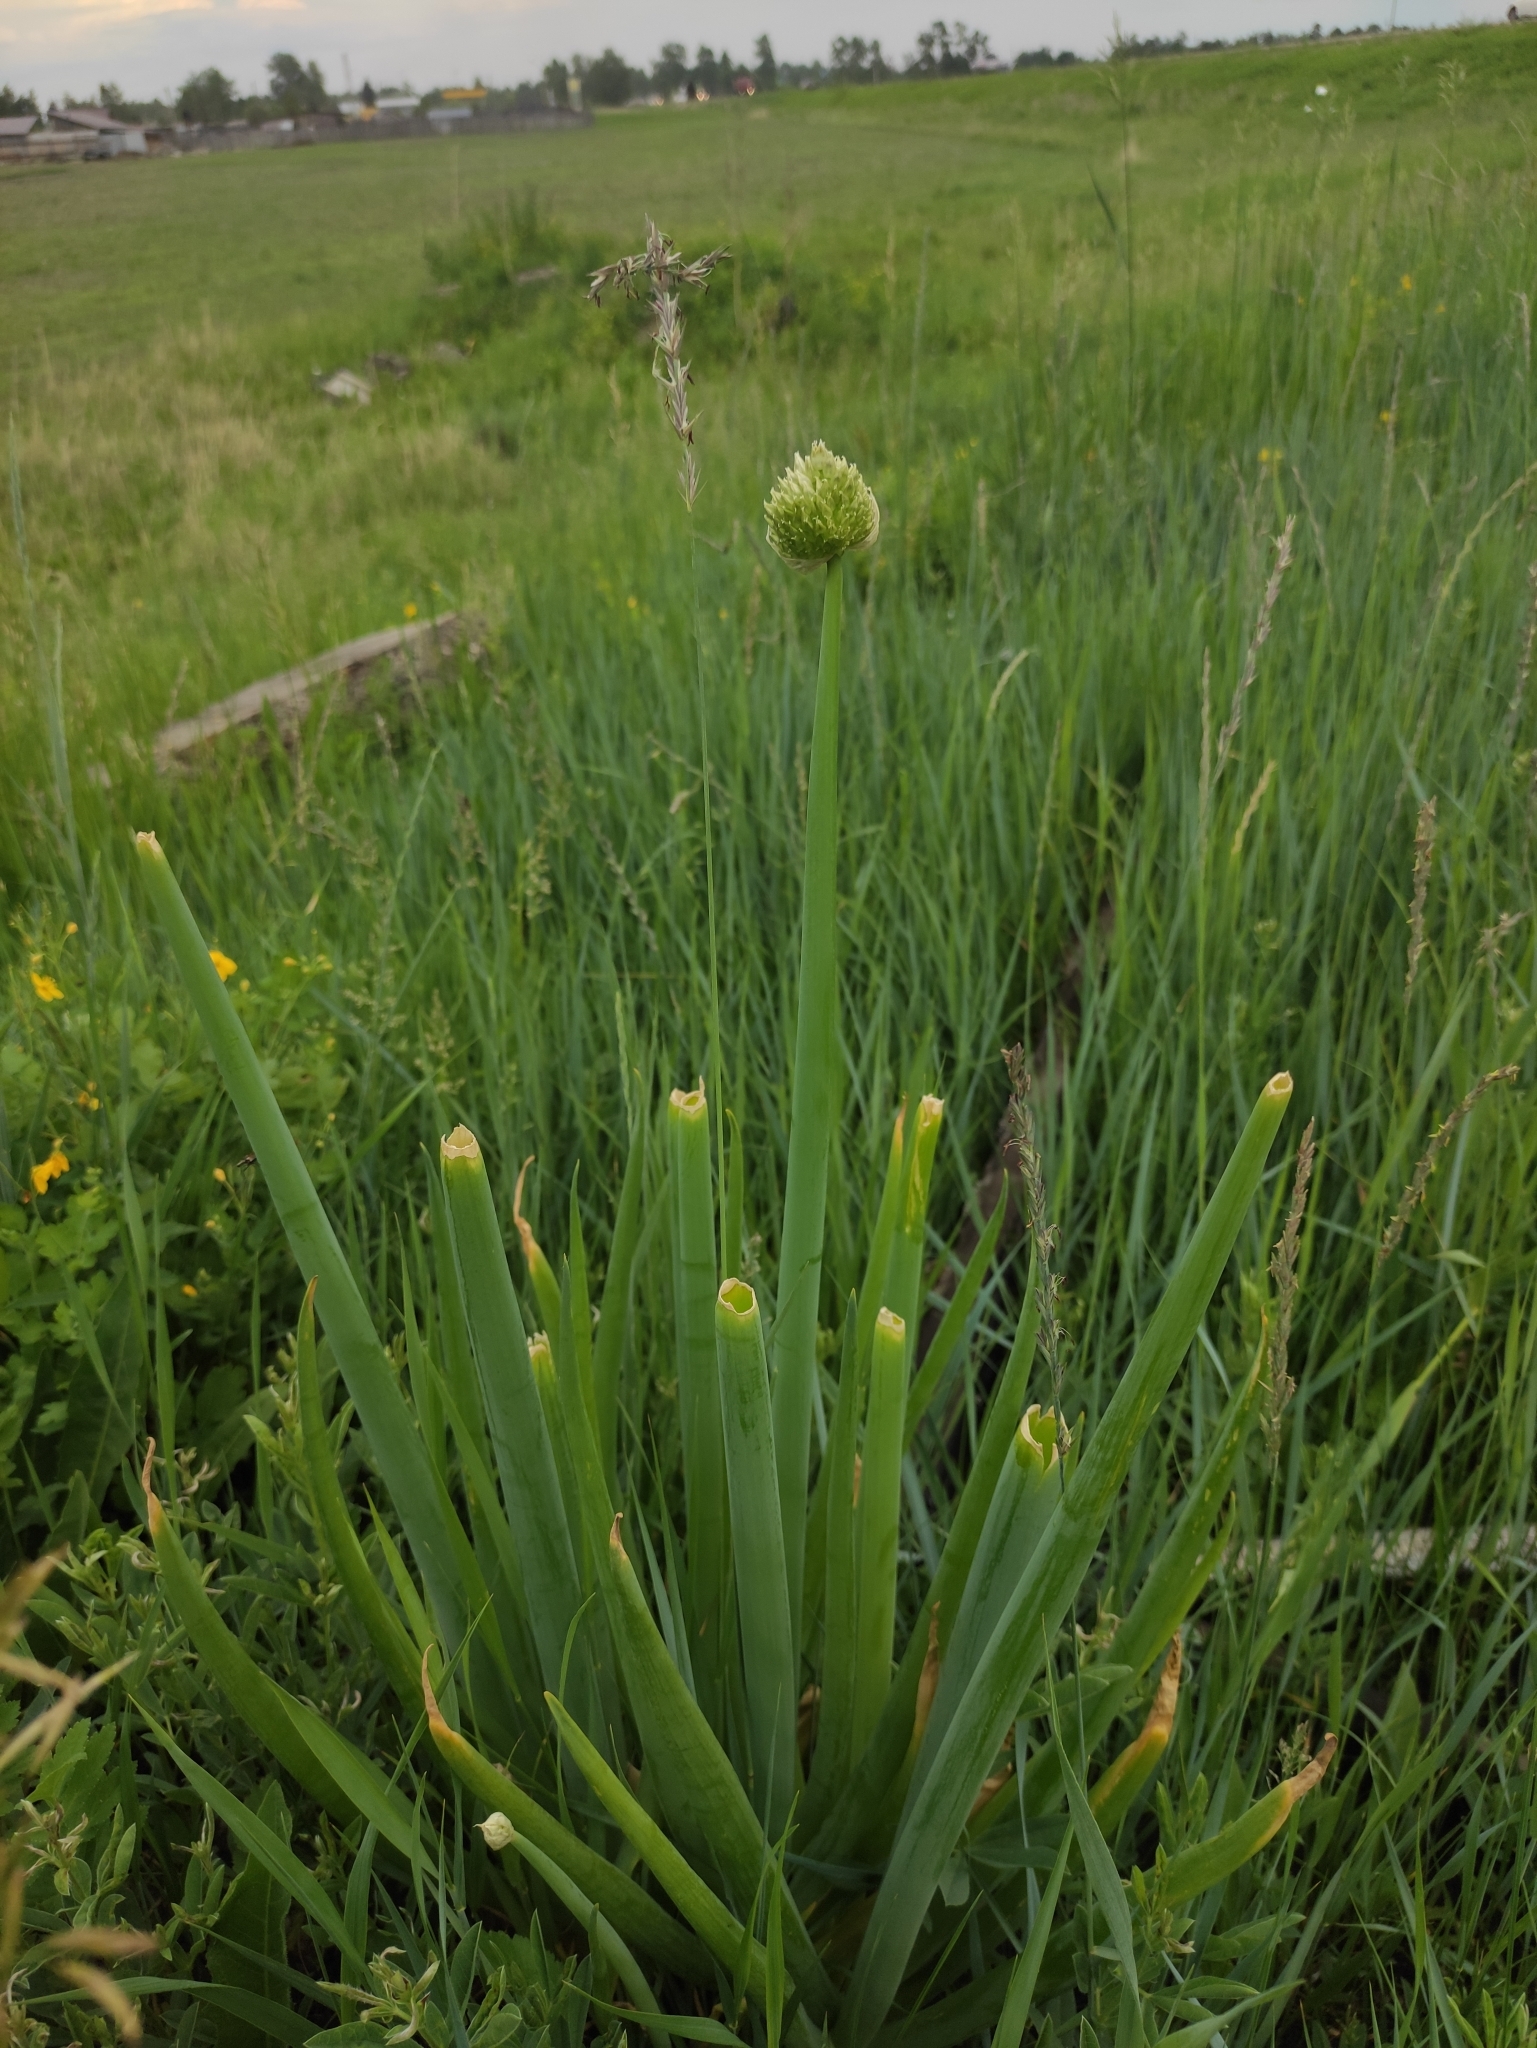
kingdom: Plantae
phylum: Tracheophyta
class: Liliopsida
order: Asparagales
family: Amaryllidaceae
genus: Allium
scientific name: Allium fistulosum
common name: Welsh onion
